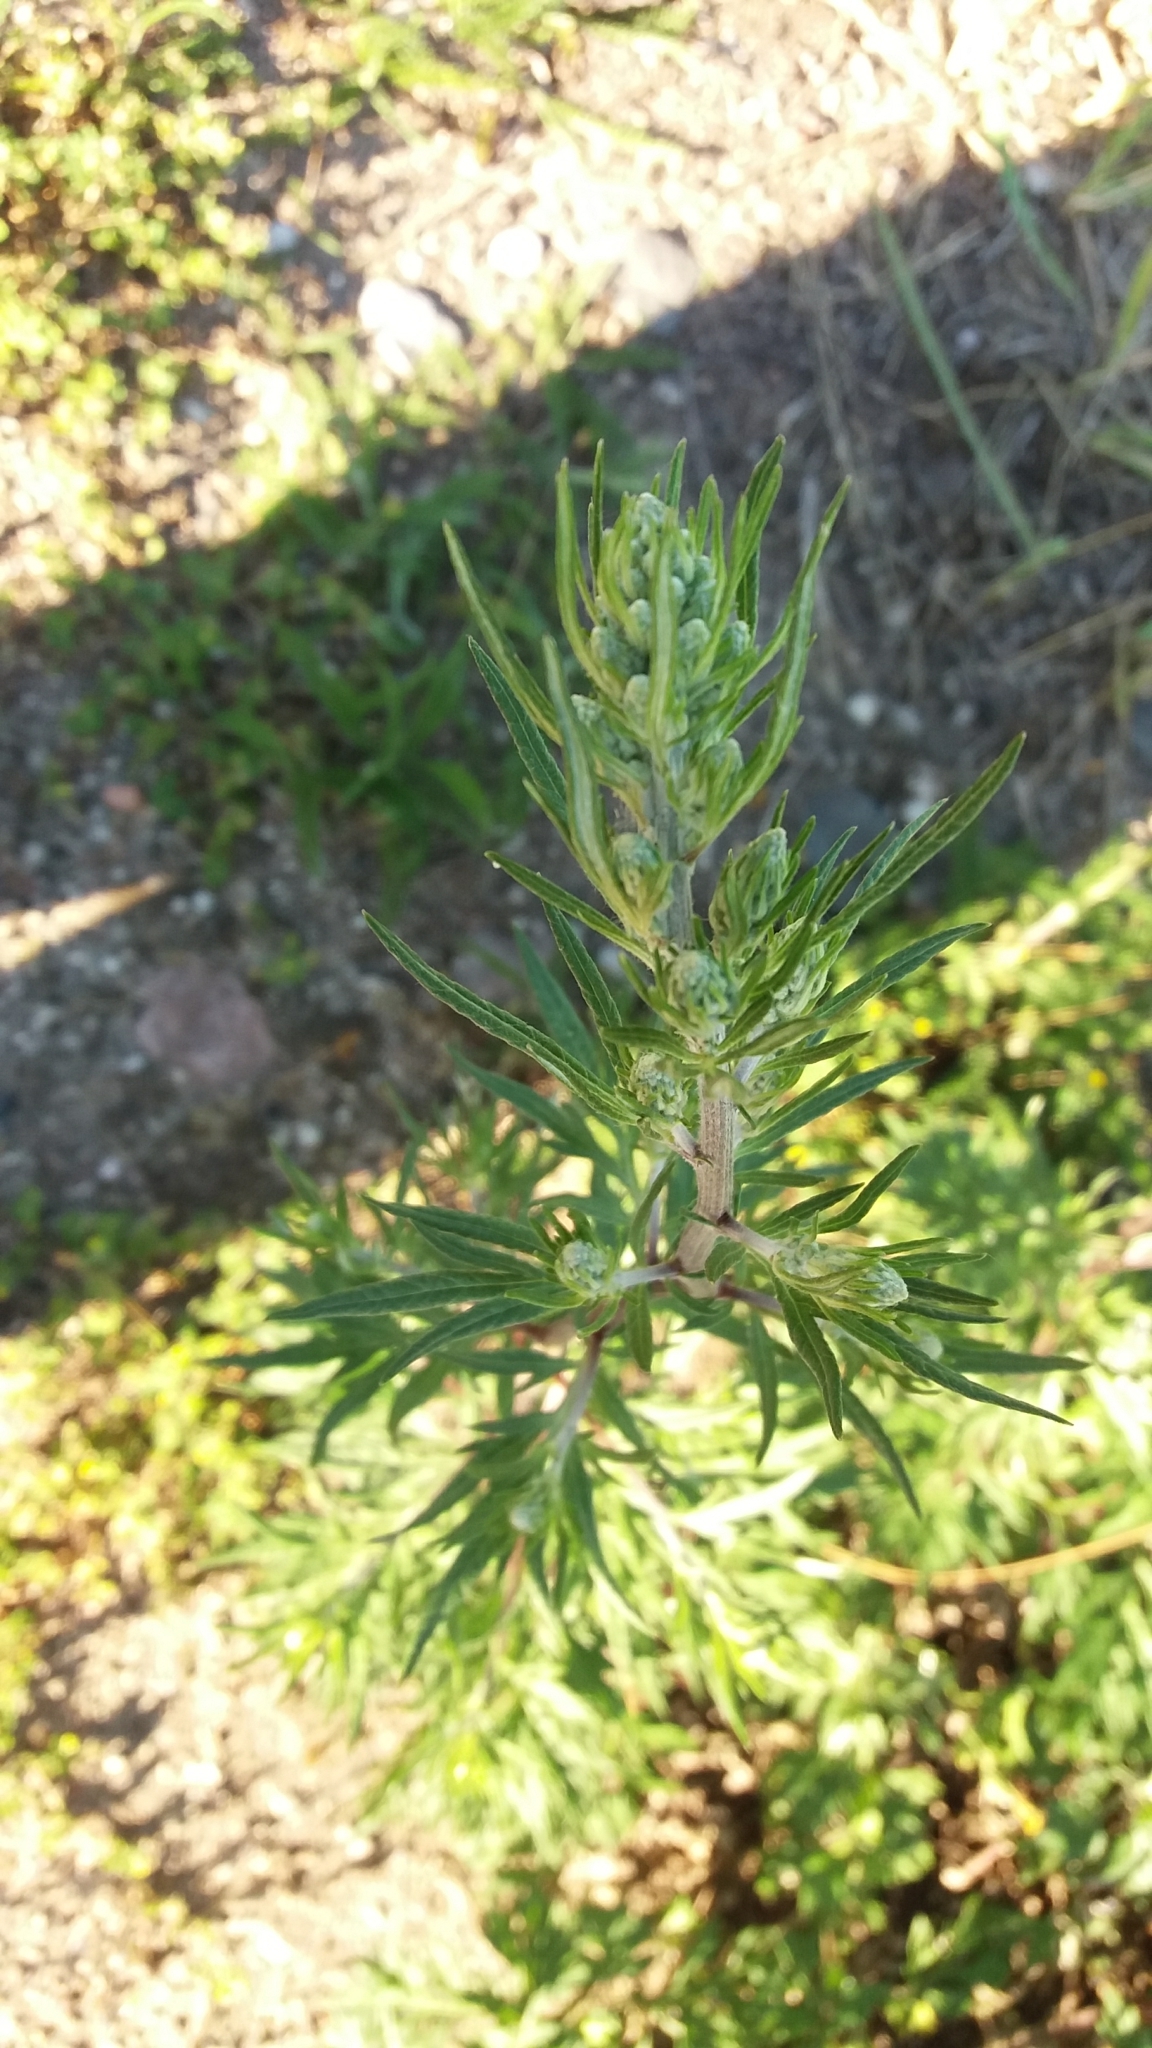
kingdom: Plantae
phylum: Tracheophyta
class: Magnoliopsida
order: Asterales
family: Asteraceae
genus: Artemisia
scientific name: Artemisia vulgaris
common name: Mugwort
